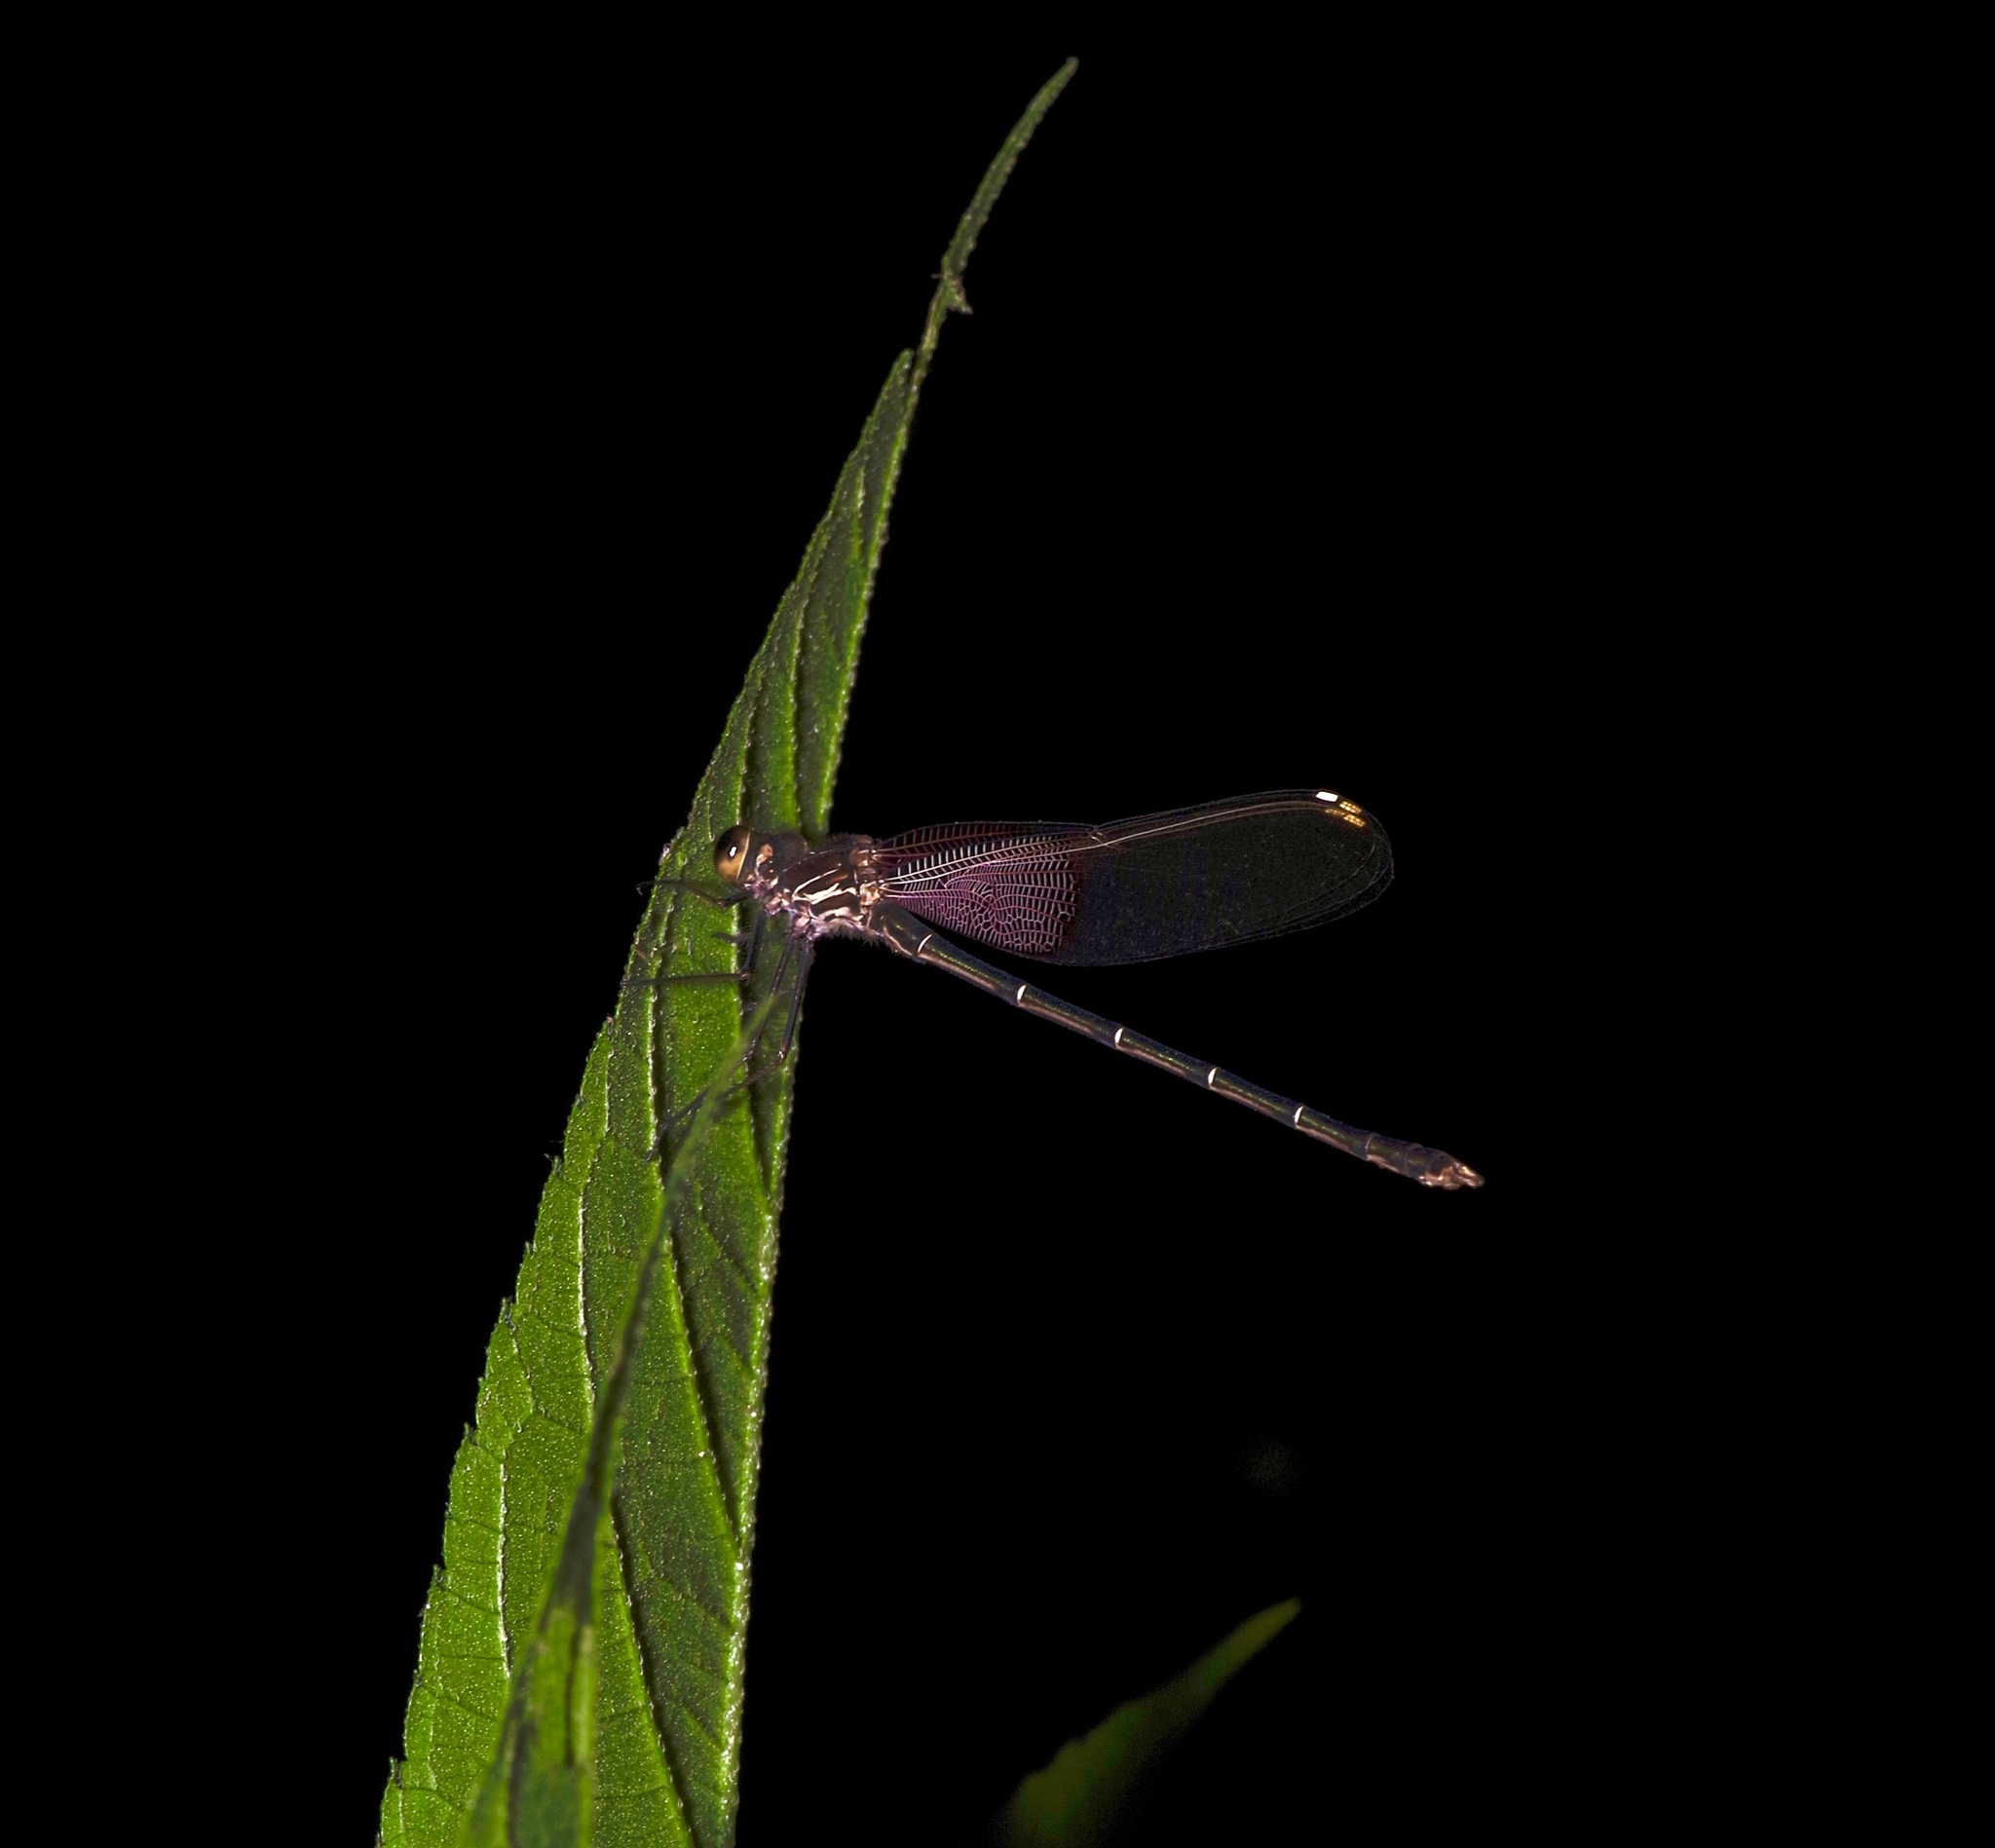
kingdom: Animalia
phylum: Arthropoda
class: Insecta
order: Odonata
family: Calopterygidae
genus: Hetaerina
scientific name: Hetaerina americana
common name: American rubyspot
